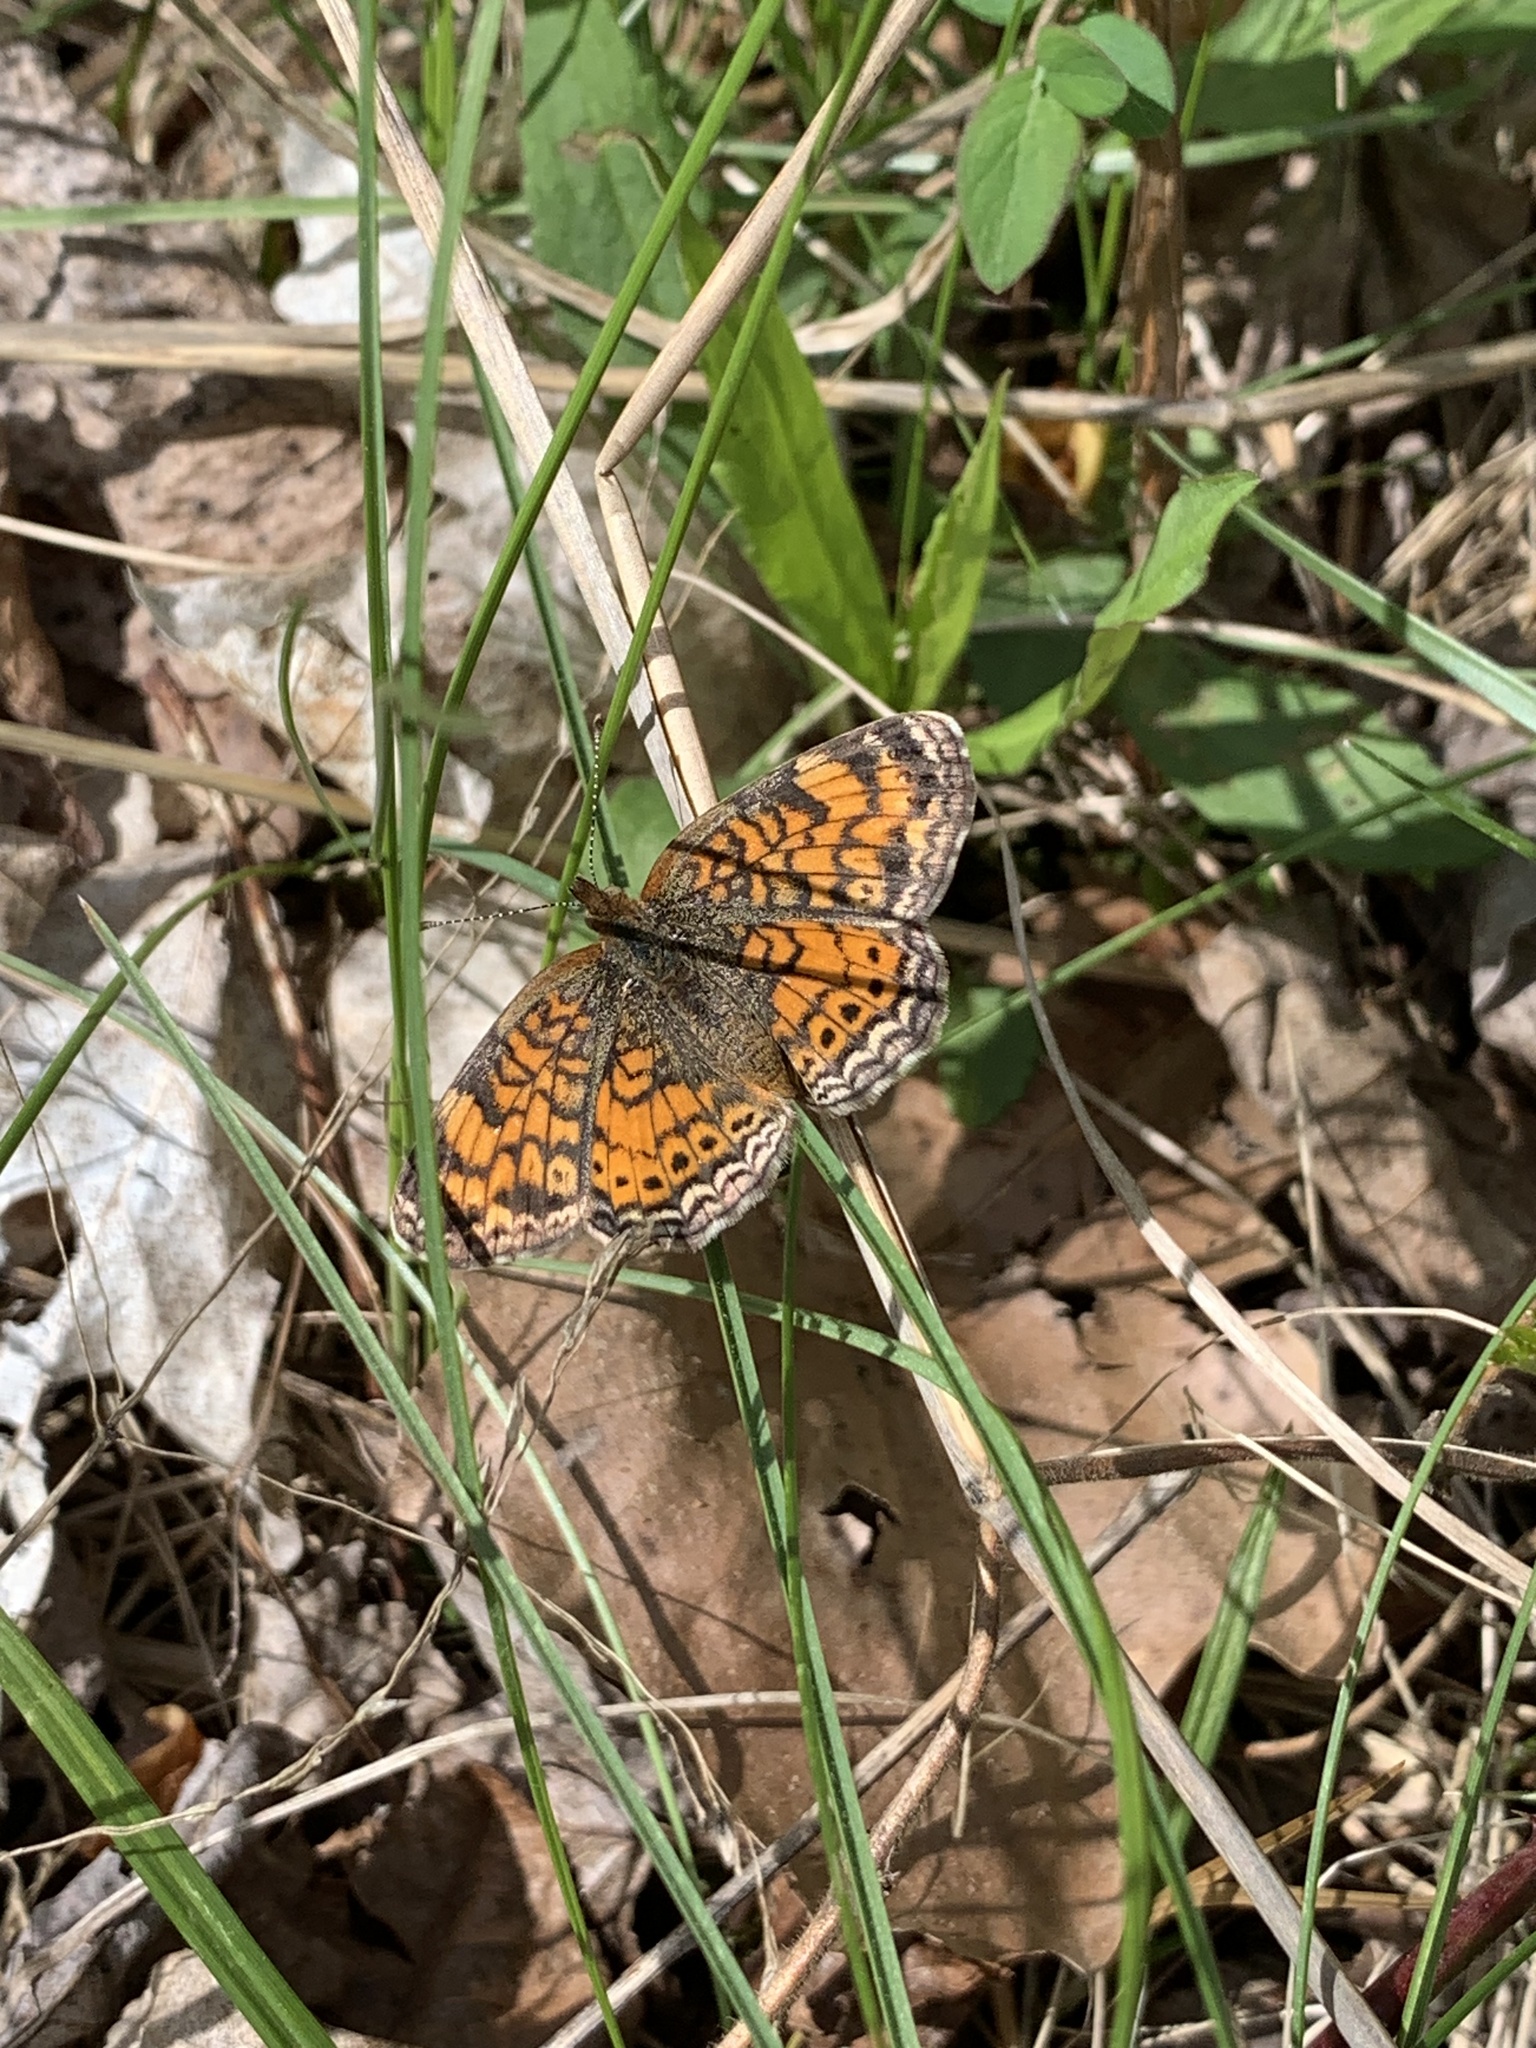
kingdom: Animalia
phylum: Arthropoda
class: Insecta
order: Lepidoptera
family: Nymphalidae
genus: Phyciodes
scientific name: Phyciodes tharos
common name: Pearl crescent
